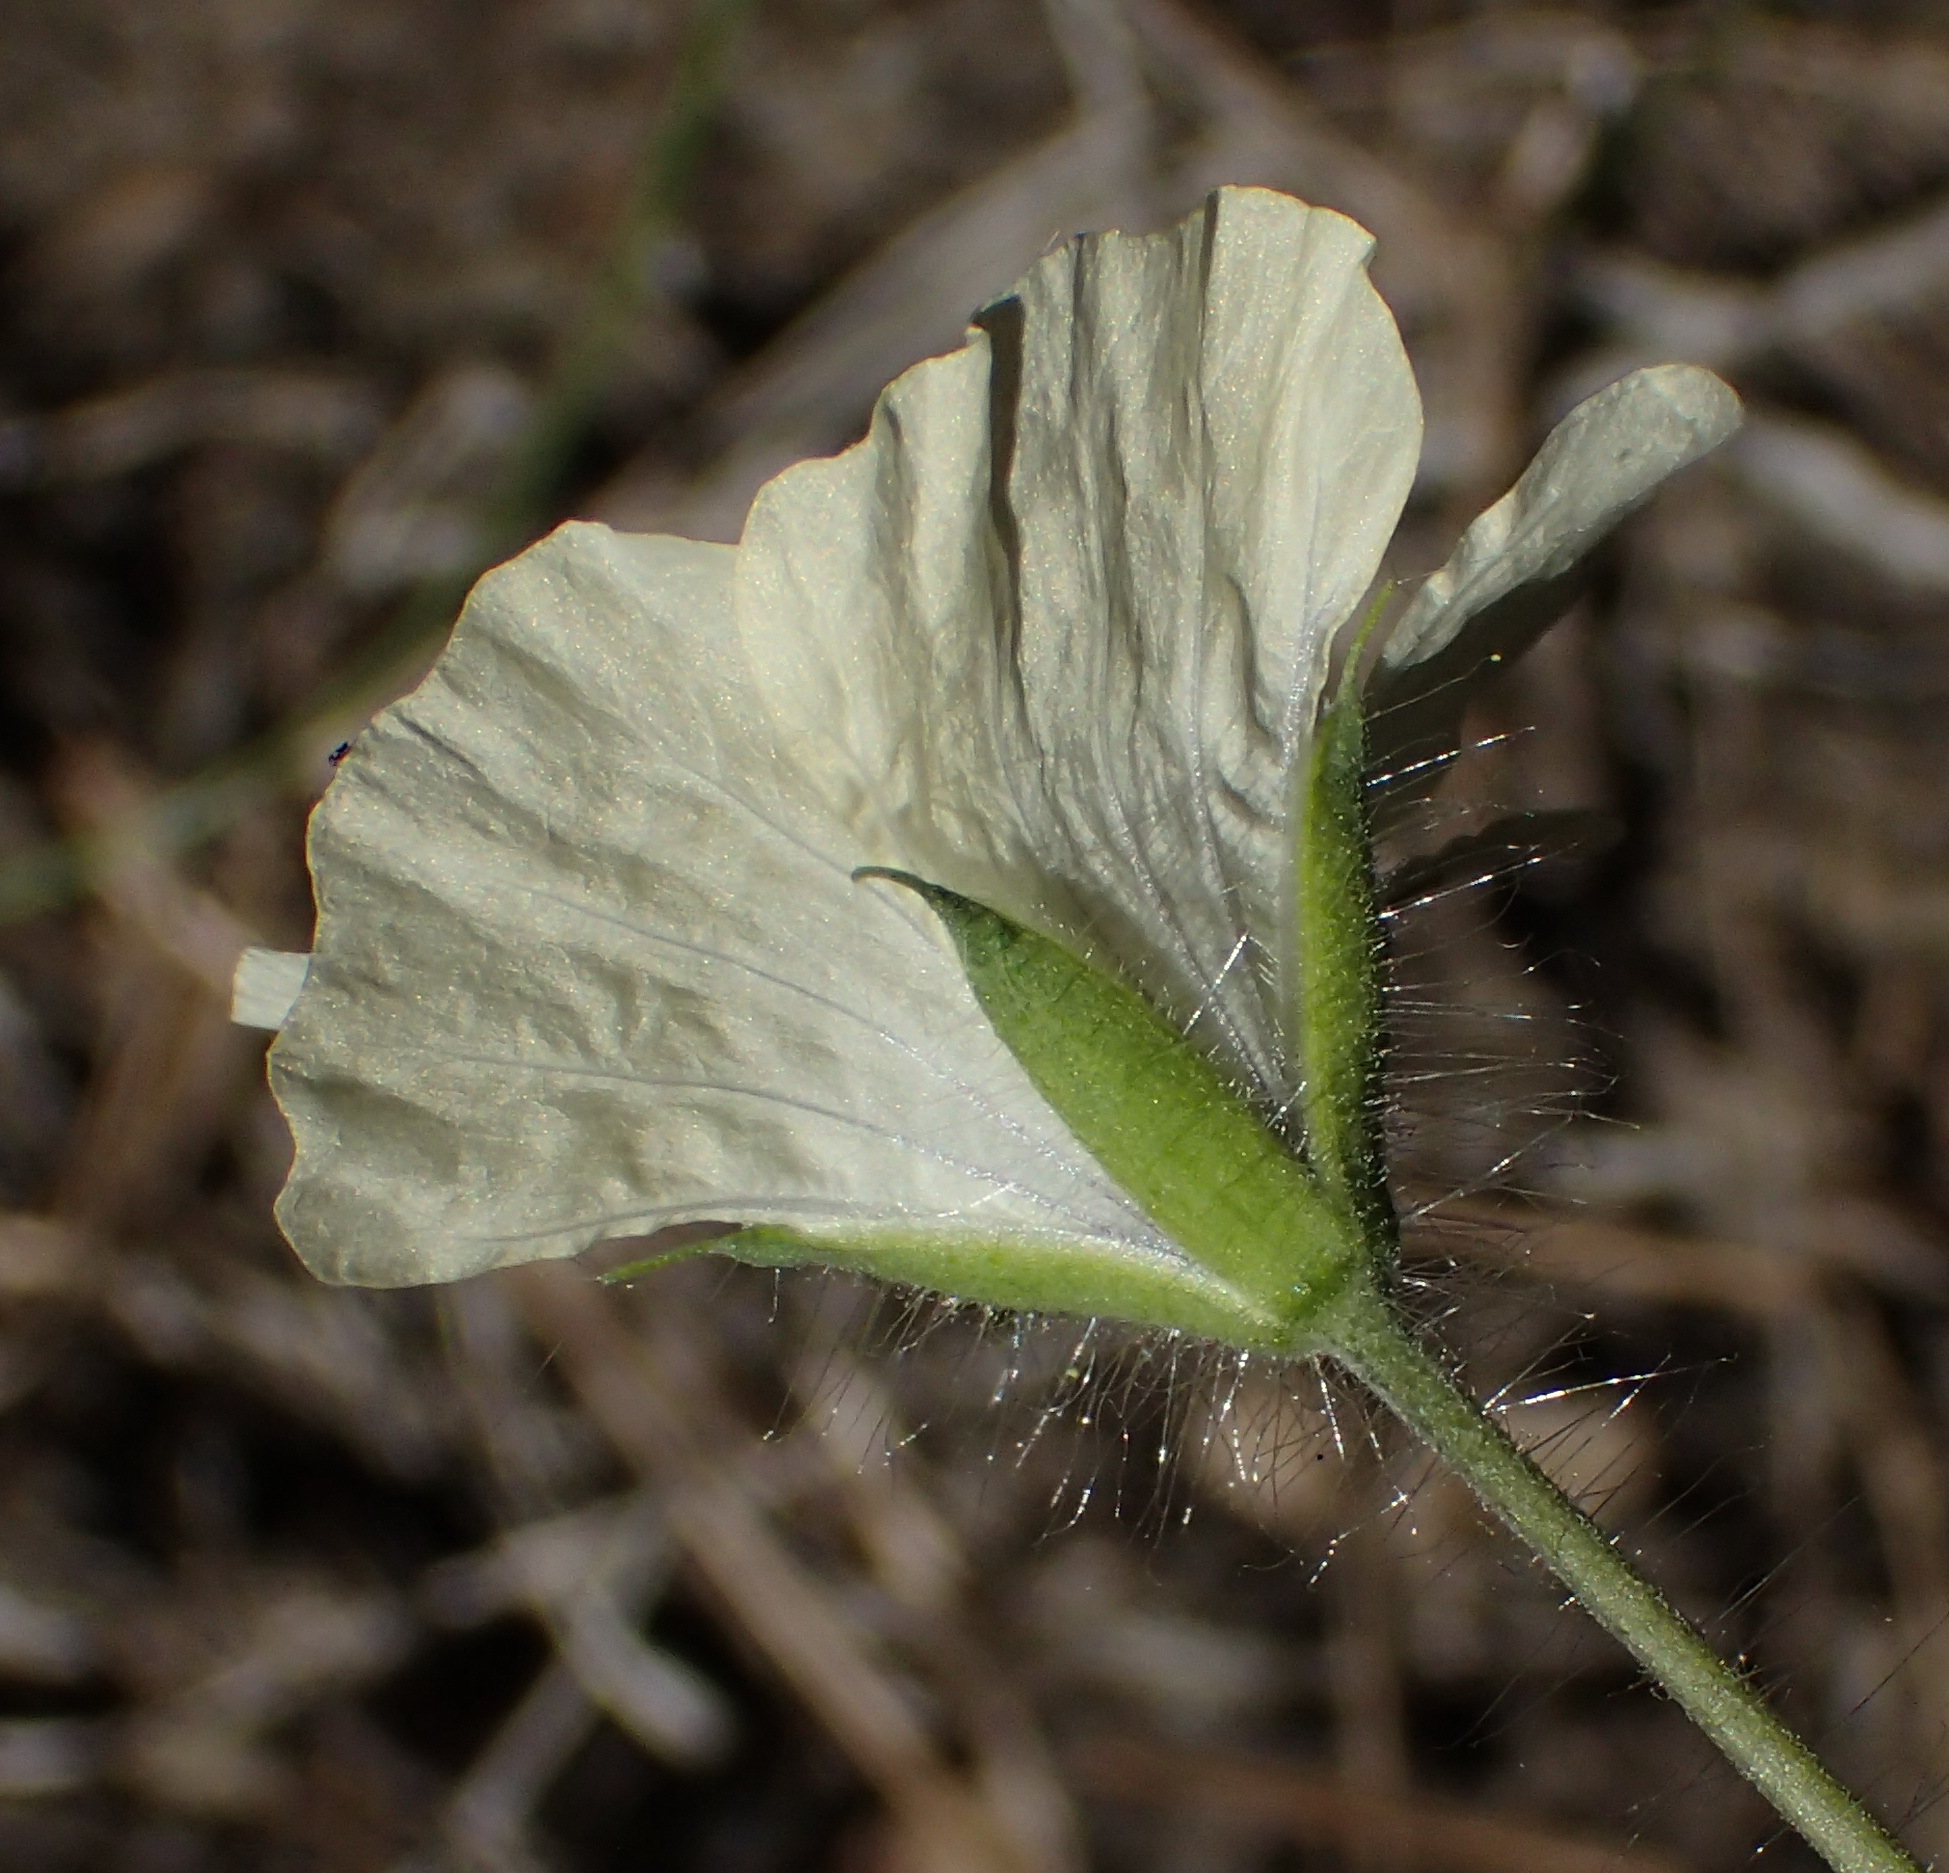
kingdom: Plantae
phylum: Tracheophyta
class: Magnoliopsida
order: Geraniales
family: Geraniaceae
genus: Monsonia
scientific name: Monsonia emarginata
